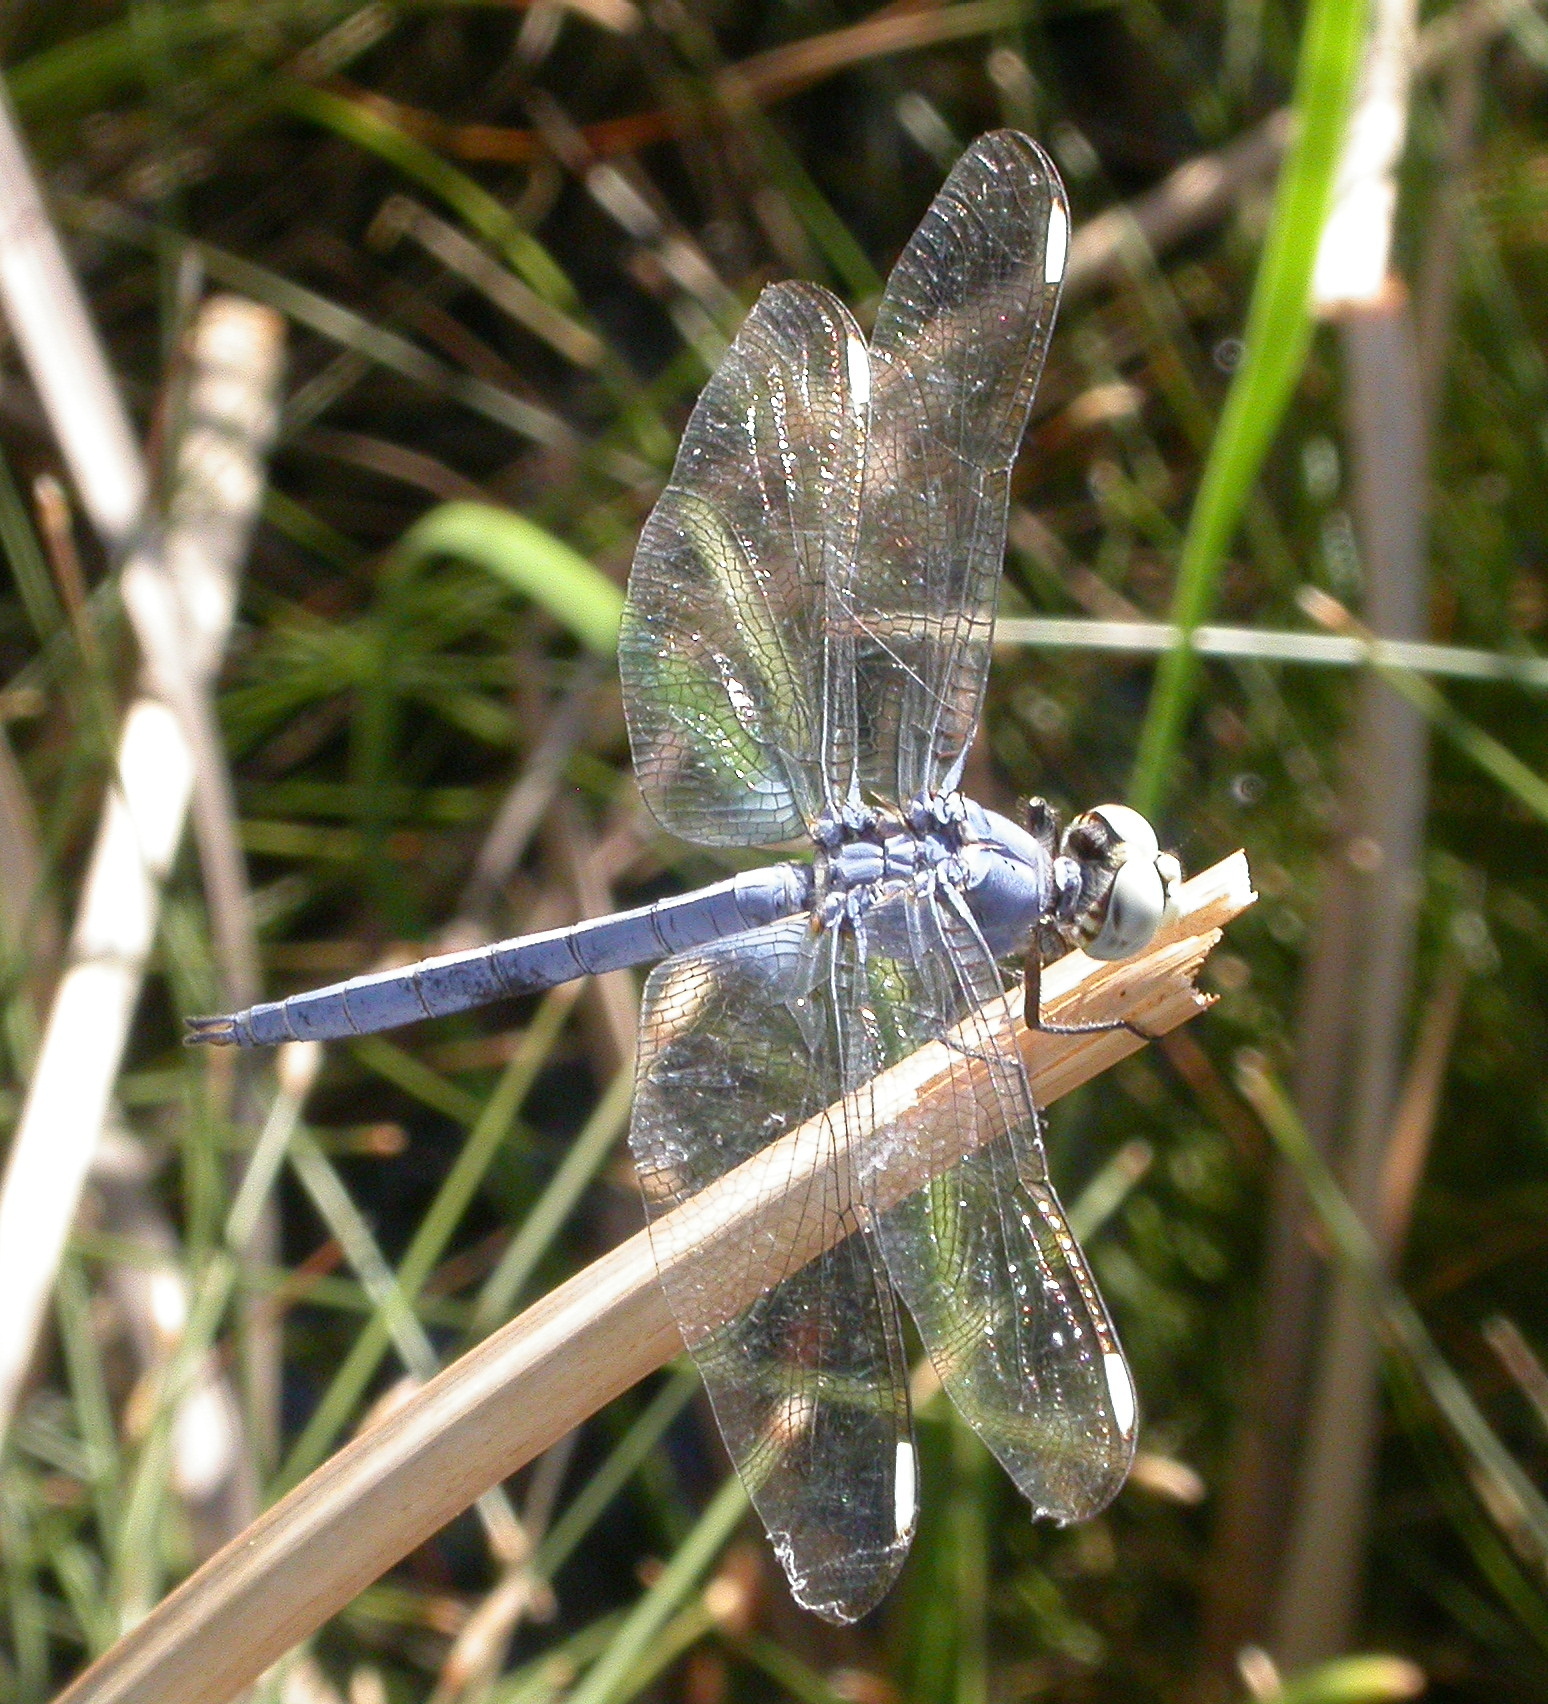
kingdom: Animalia
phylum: Arthropoda
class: Insecta
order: Odonata
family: Libellulidae
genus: Libellula
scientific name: Libellula comanche
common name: Comanche skimmer
